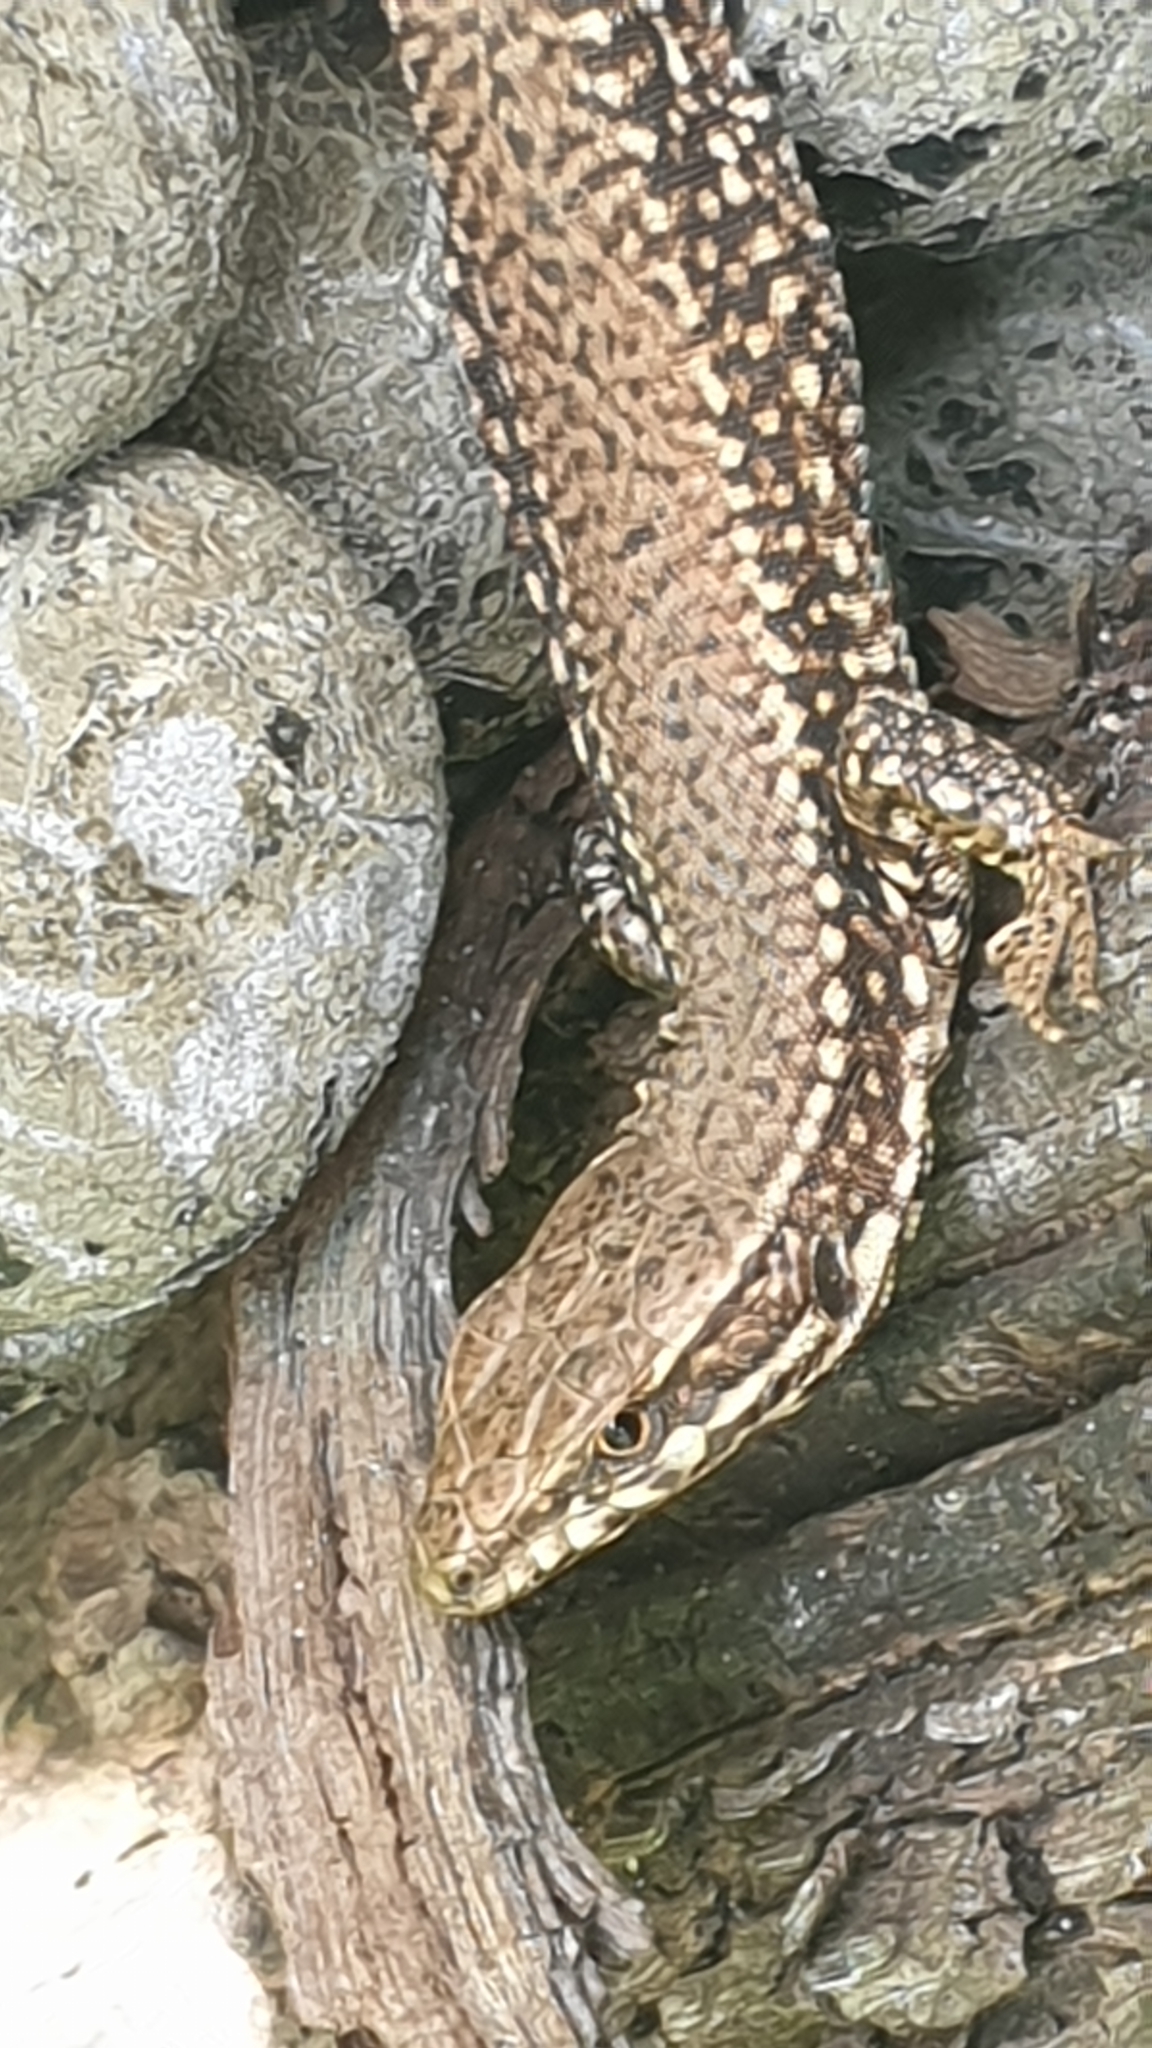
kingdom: Animalia
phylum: Chordata
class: Squamata
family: Lacertidae
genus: Podarcis
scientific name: Podarcis muralis
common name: Common wall lizard
